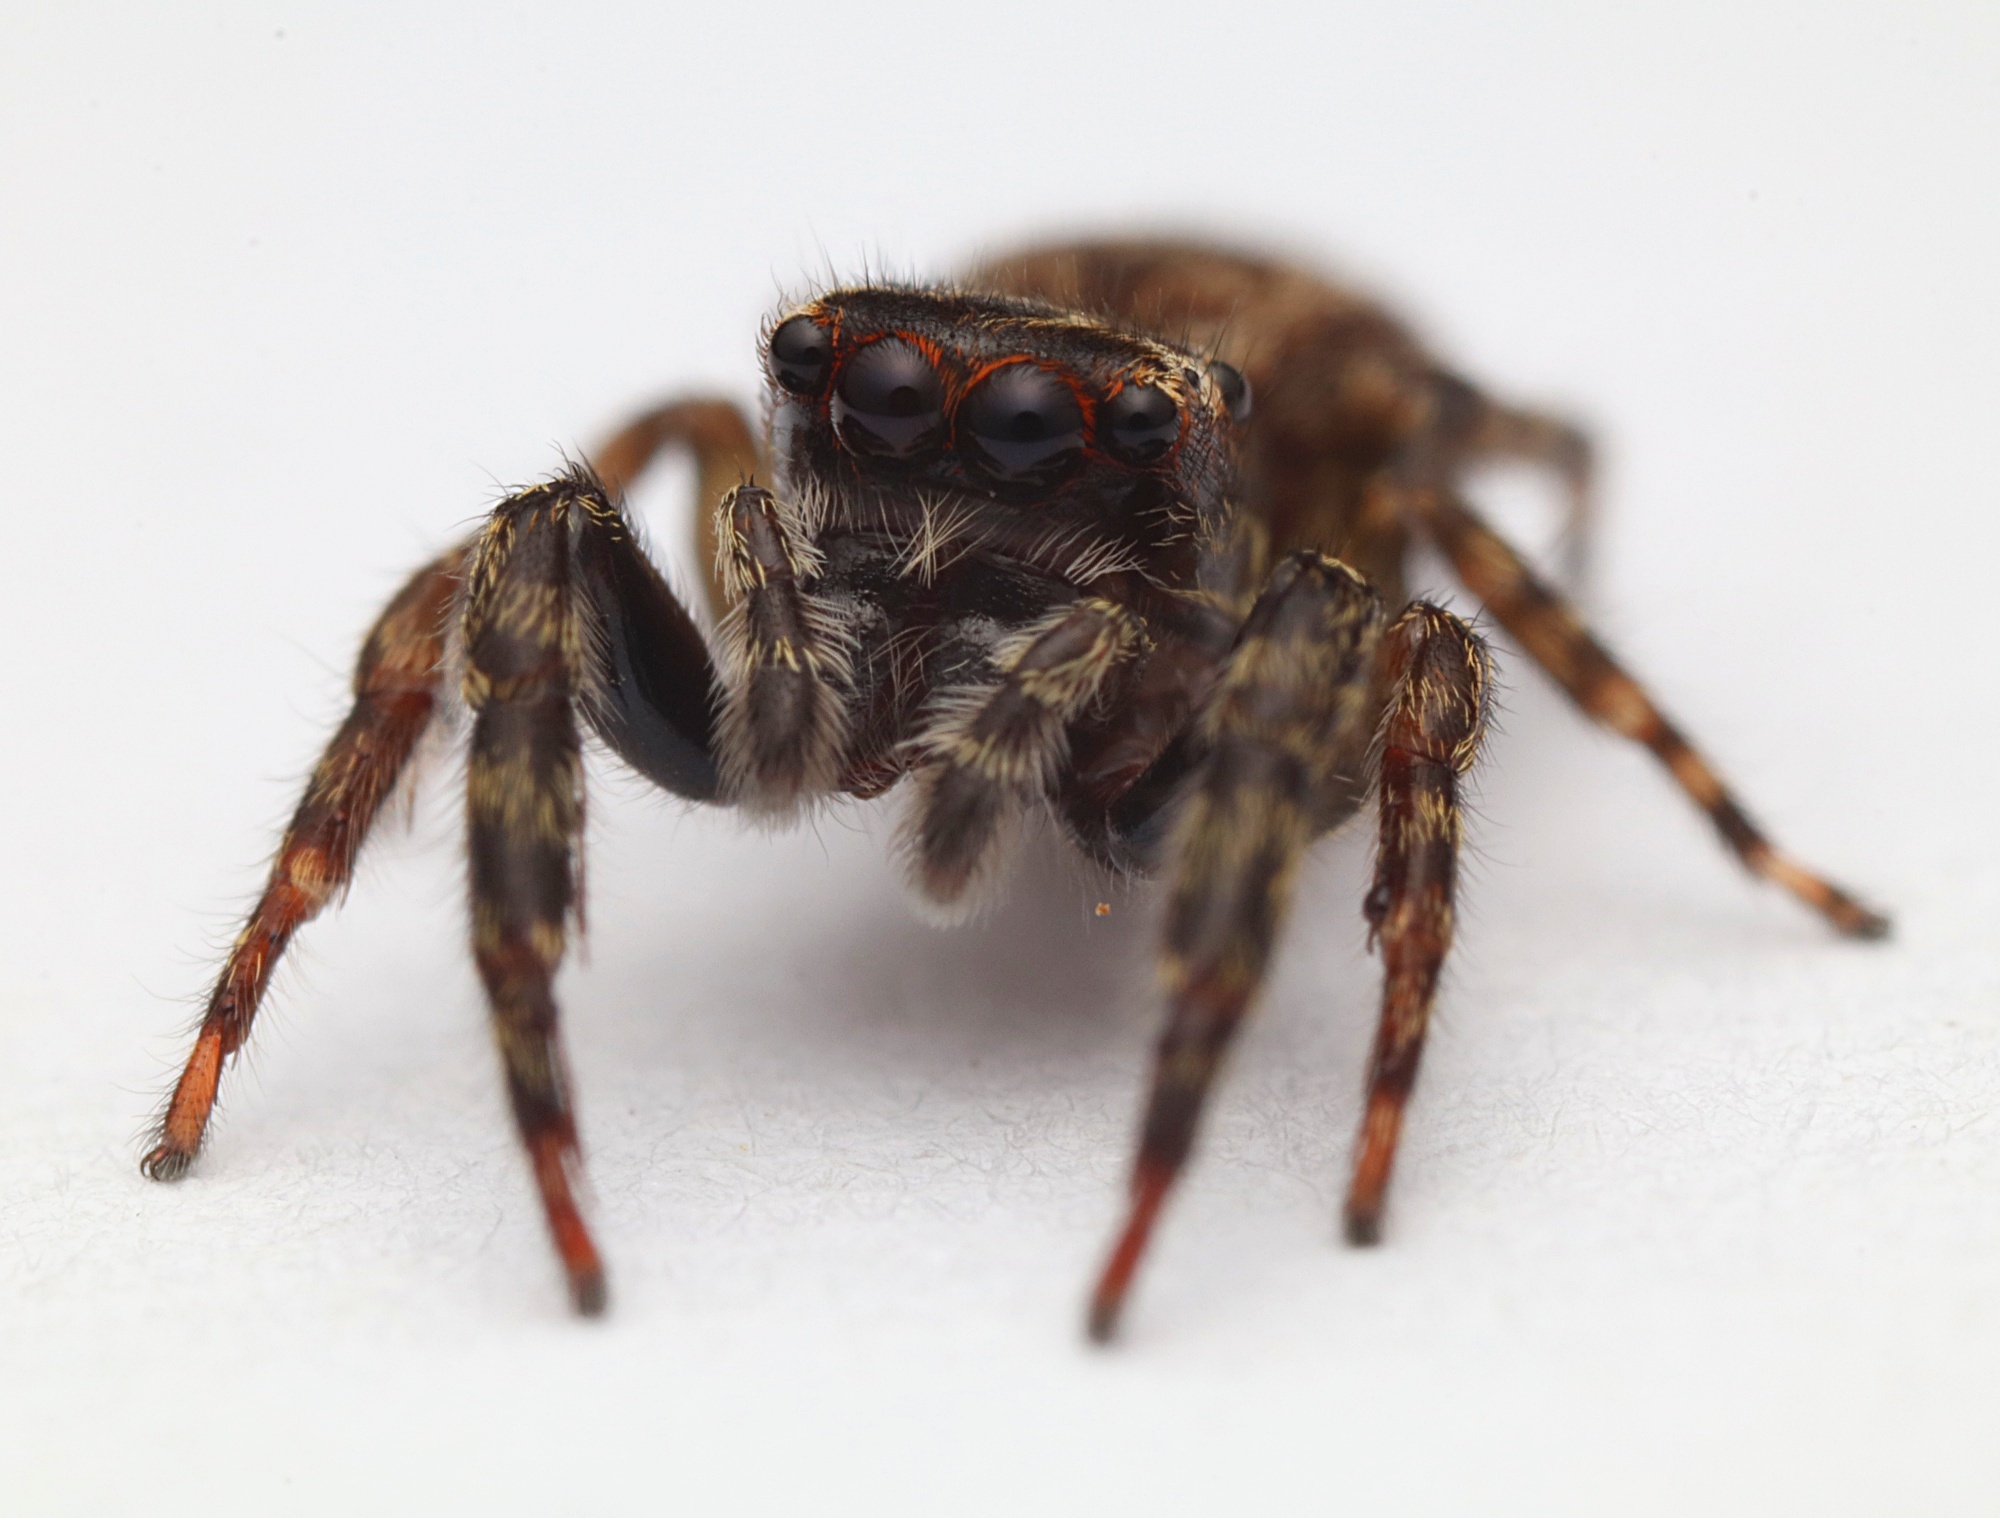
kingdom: Animalia
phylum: Arthropoda
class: Arachnida
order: Araneae
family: Salticidae
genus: Trite
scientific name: Trite auricoma
